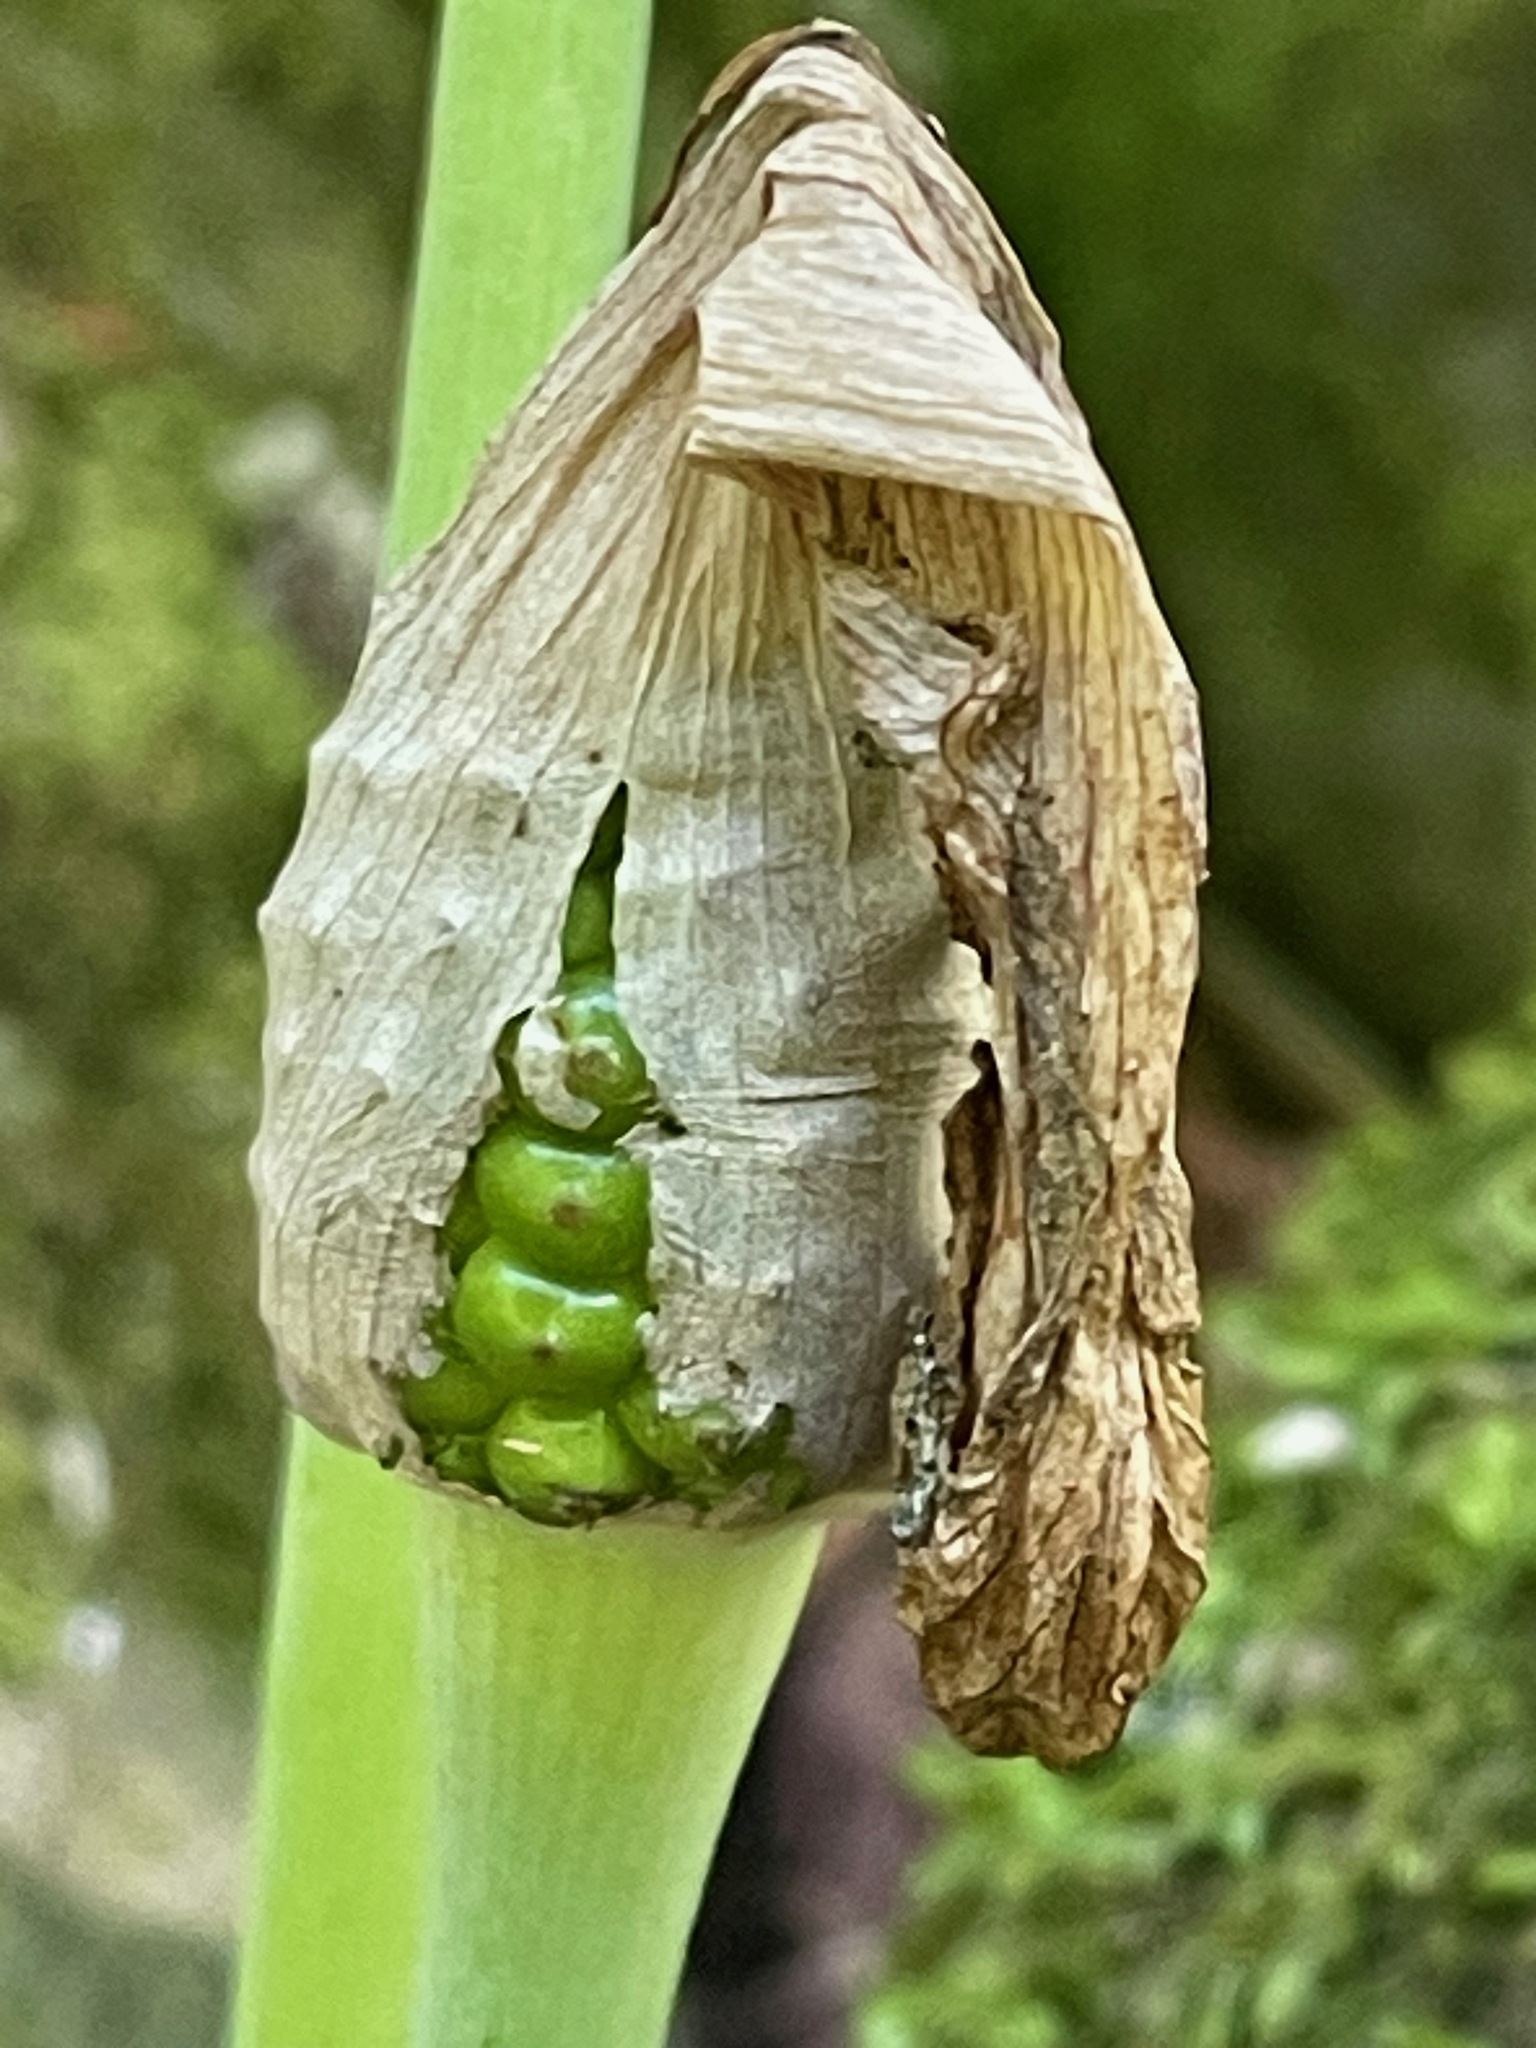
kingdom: Plantae
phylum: Tracheophyta
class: Liliopsida
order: Alismatales
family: Araceae
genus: Arisaema
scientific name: Arisaema triphyllum
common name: Jack-in-the-pulpit
